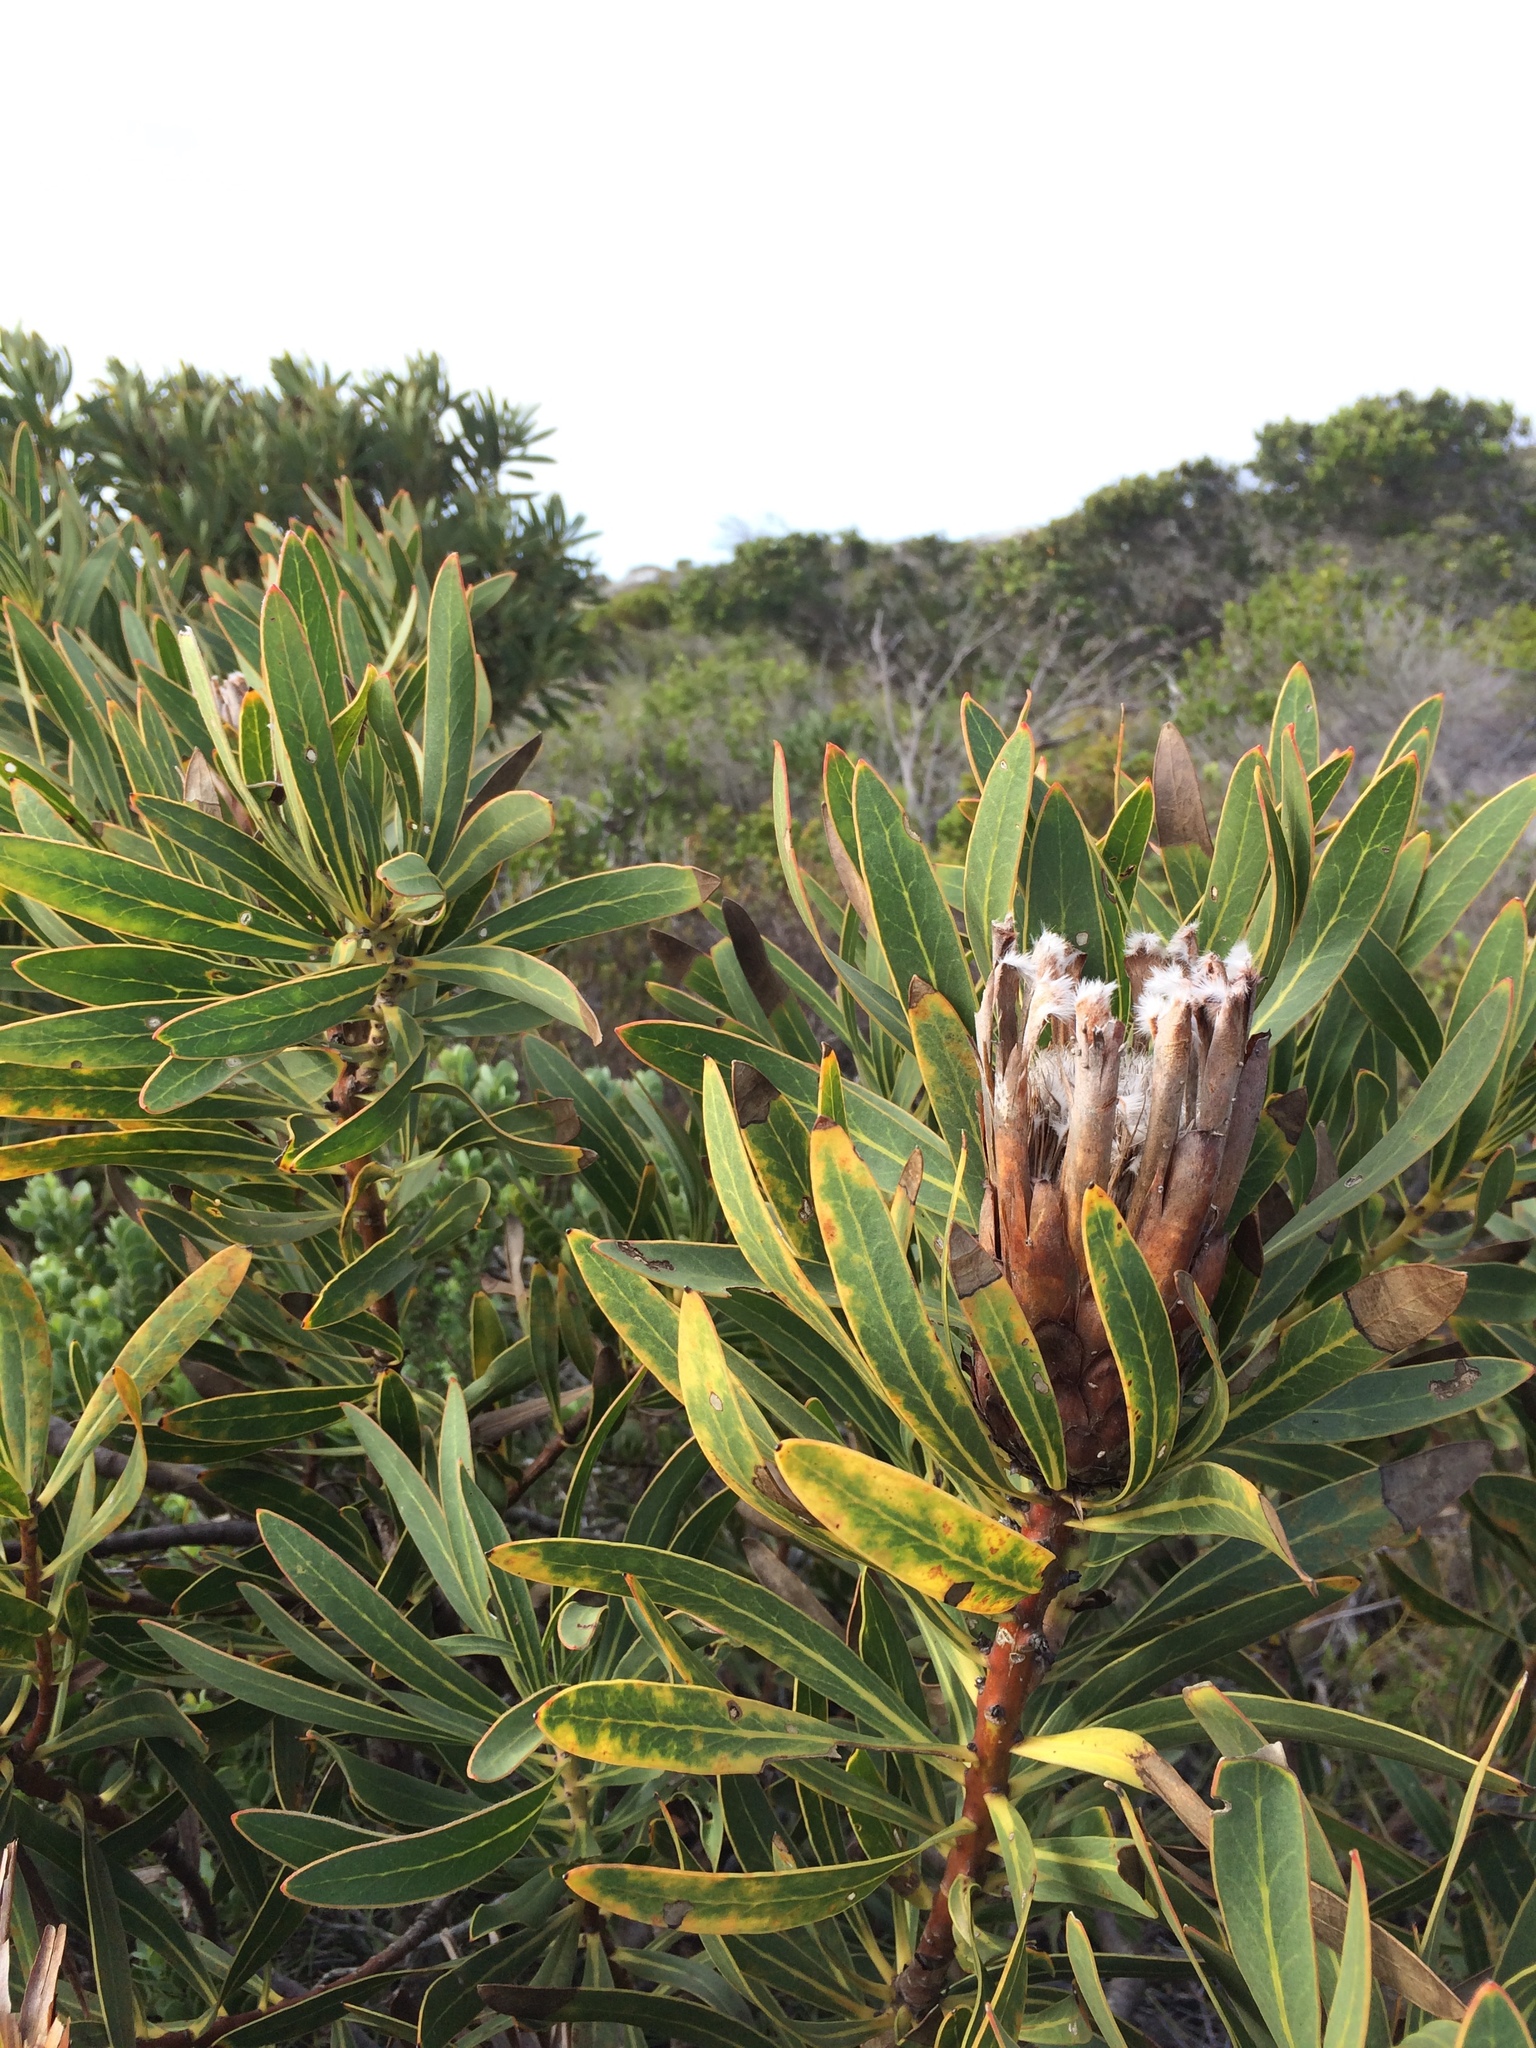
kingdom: Plantae
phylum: Tracheophyta
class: Magnoliopsida
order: Proteales
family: Proteaceae
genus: Protea
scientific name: Protea lepidocarpodendron
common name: Black-bearded protea
